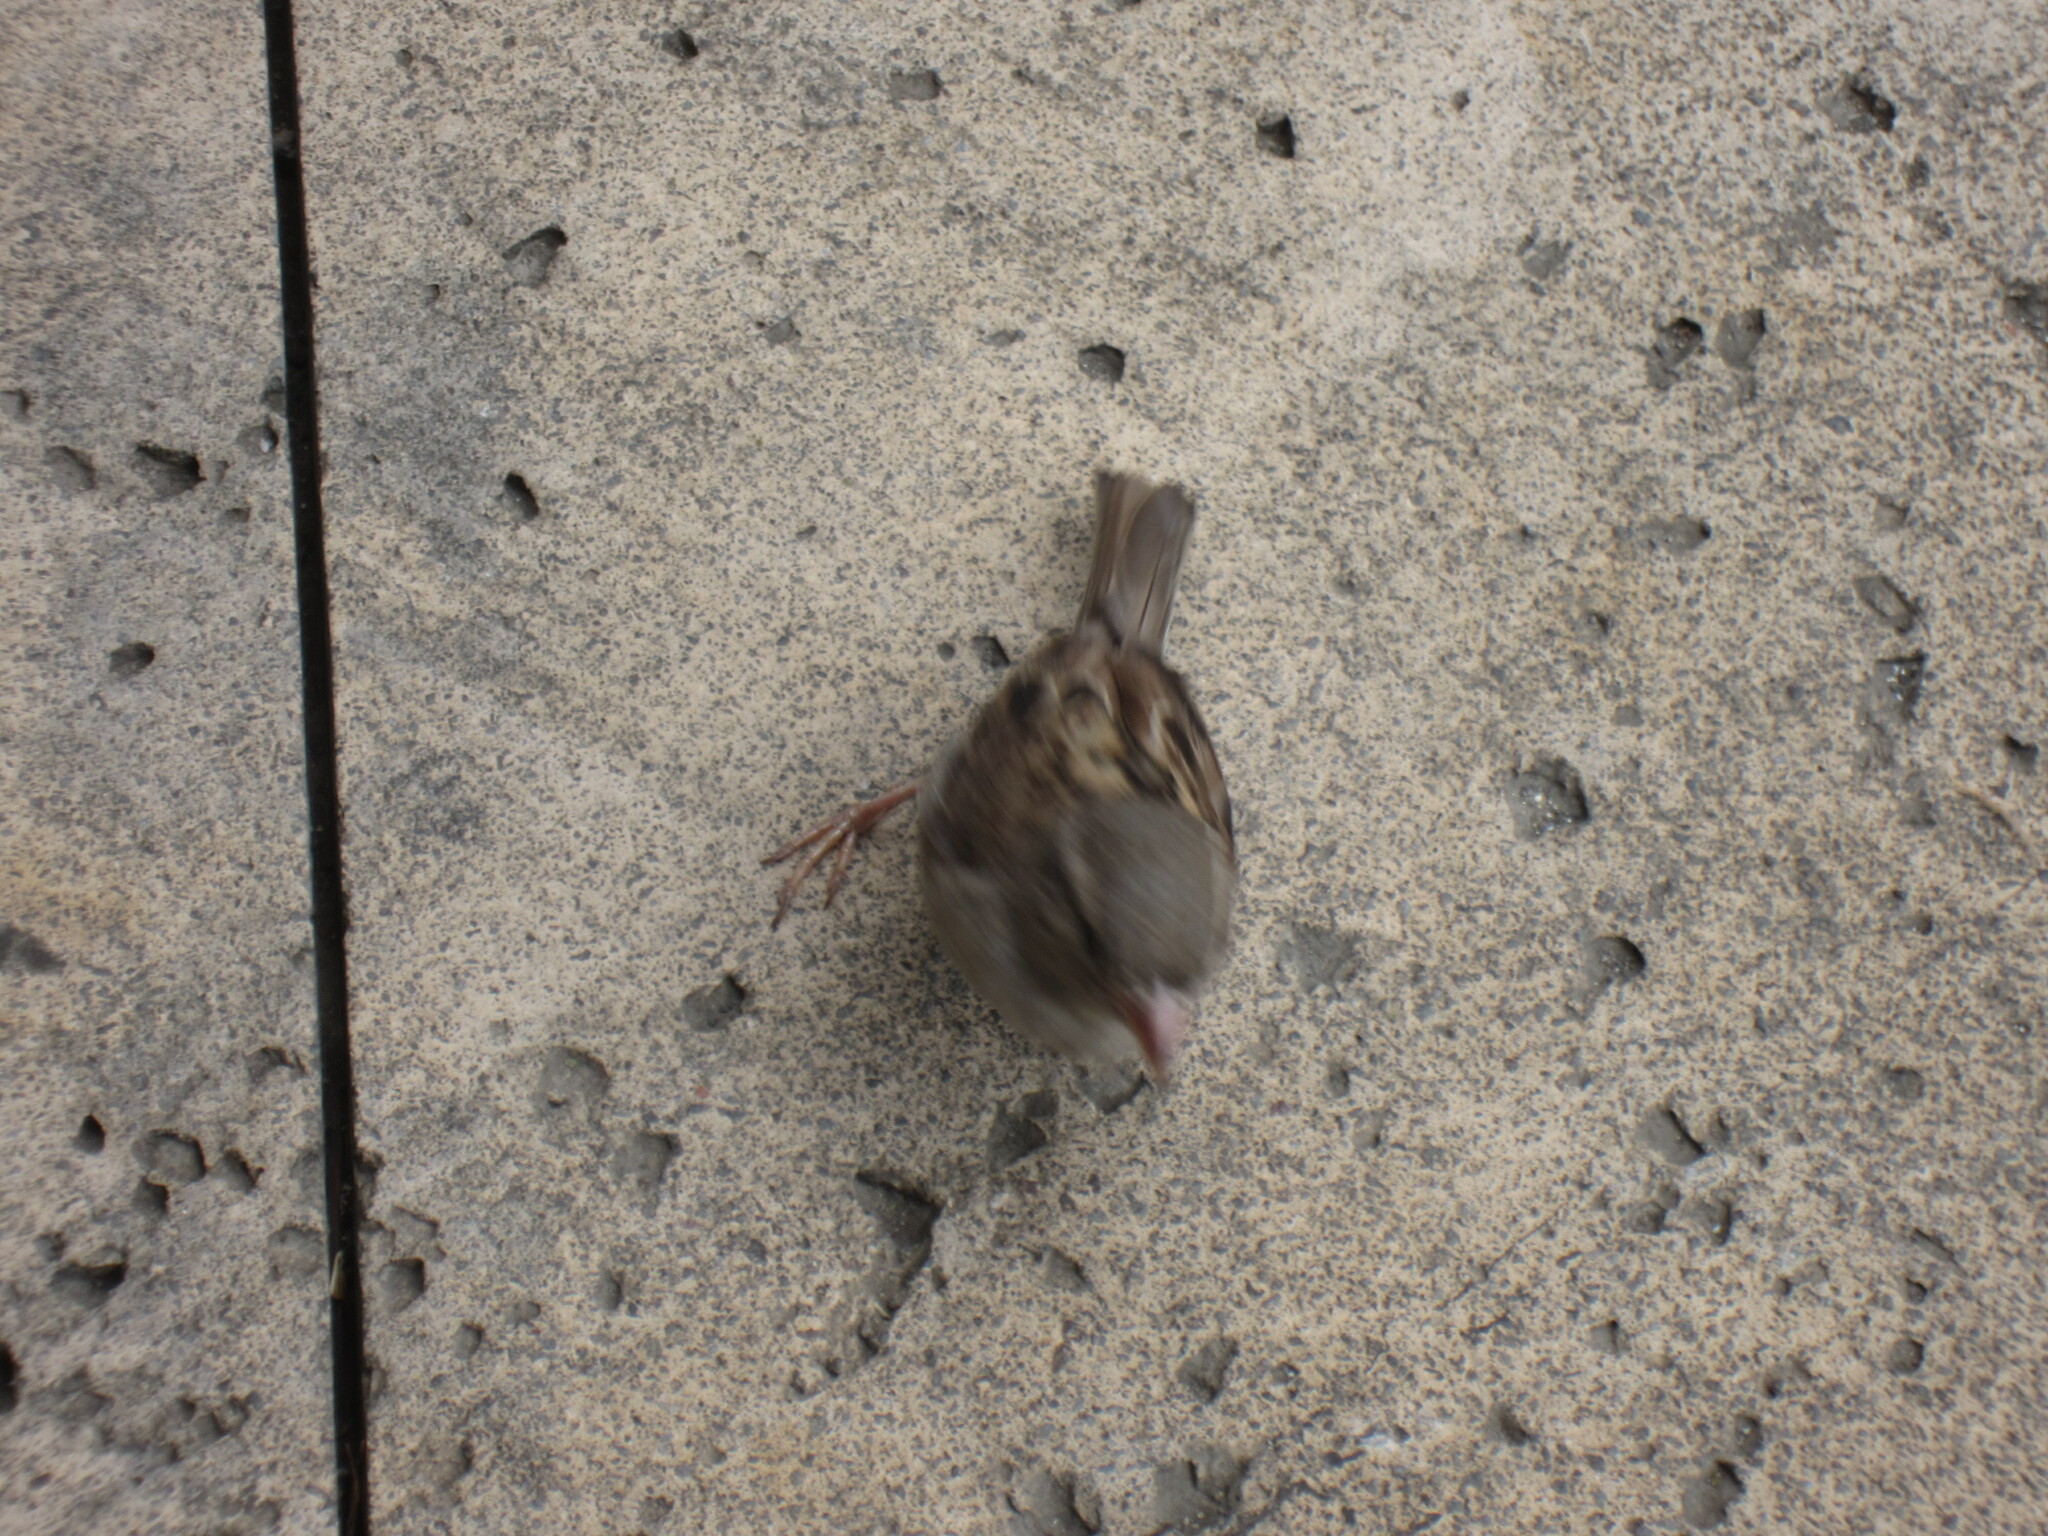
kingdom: Animalia
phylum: Chordata
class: Aves
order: Passeriformes
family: Passeridae
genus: Passer
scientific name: Passer domesticus
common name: House sparrow
